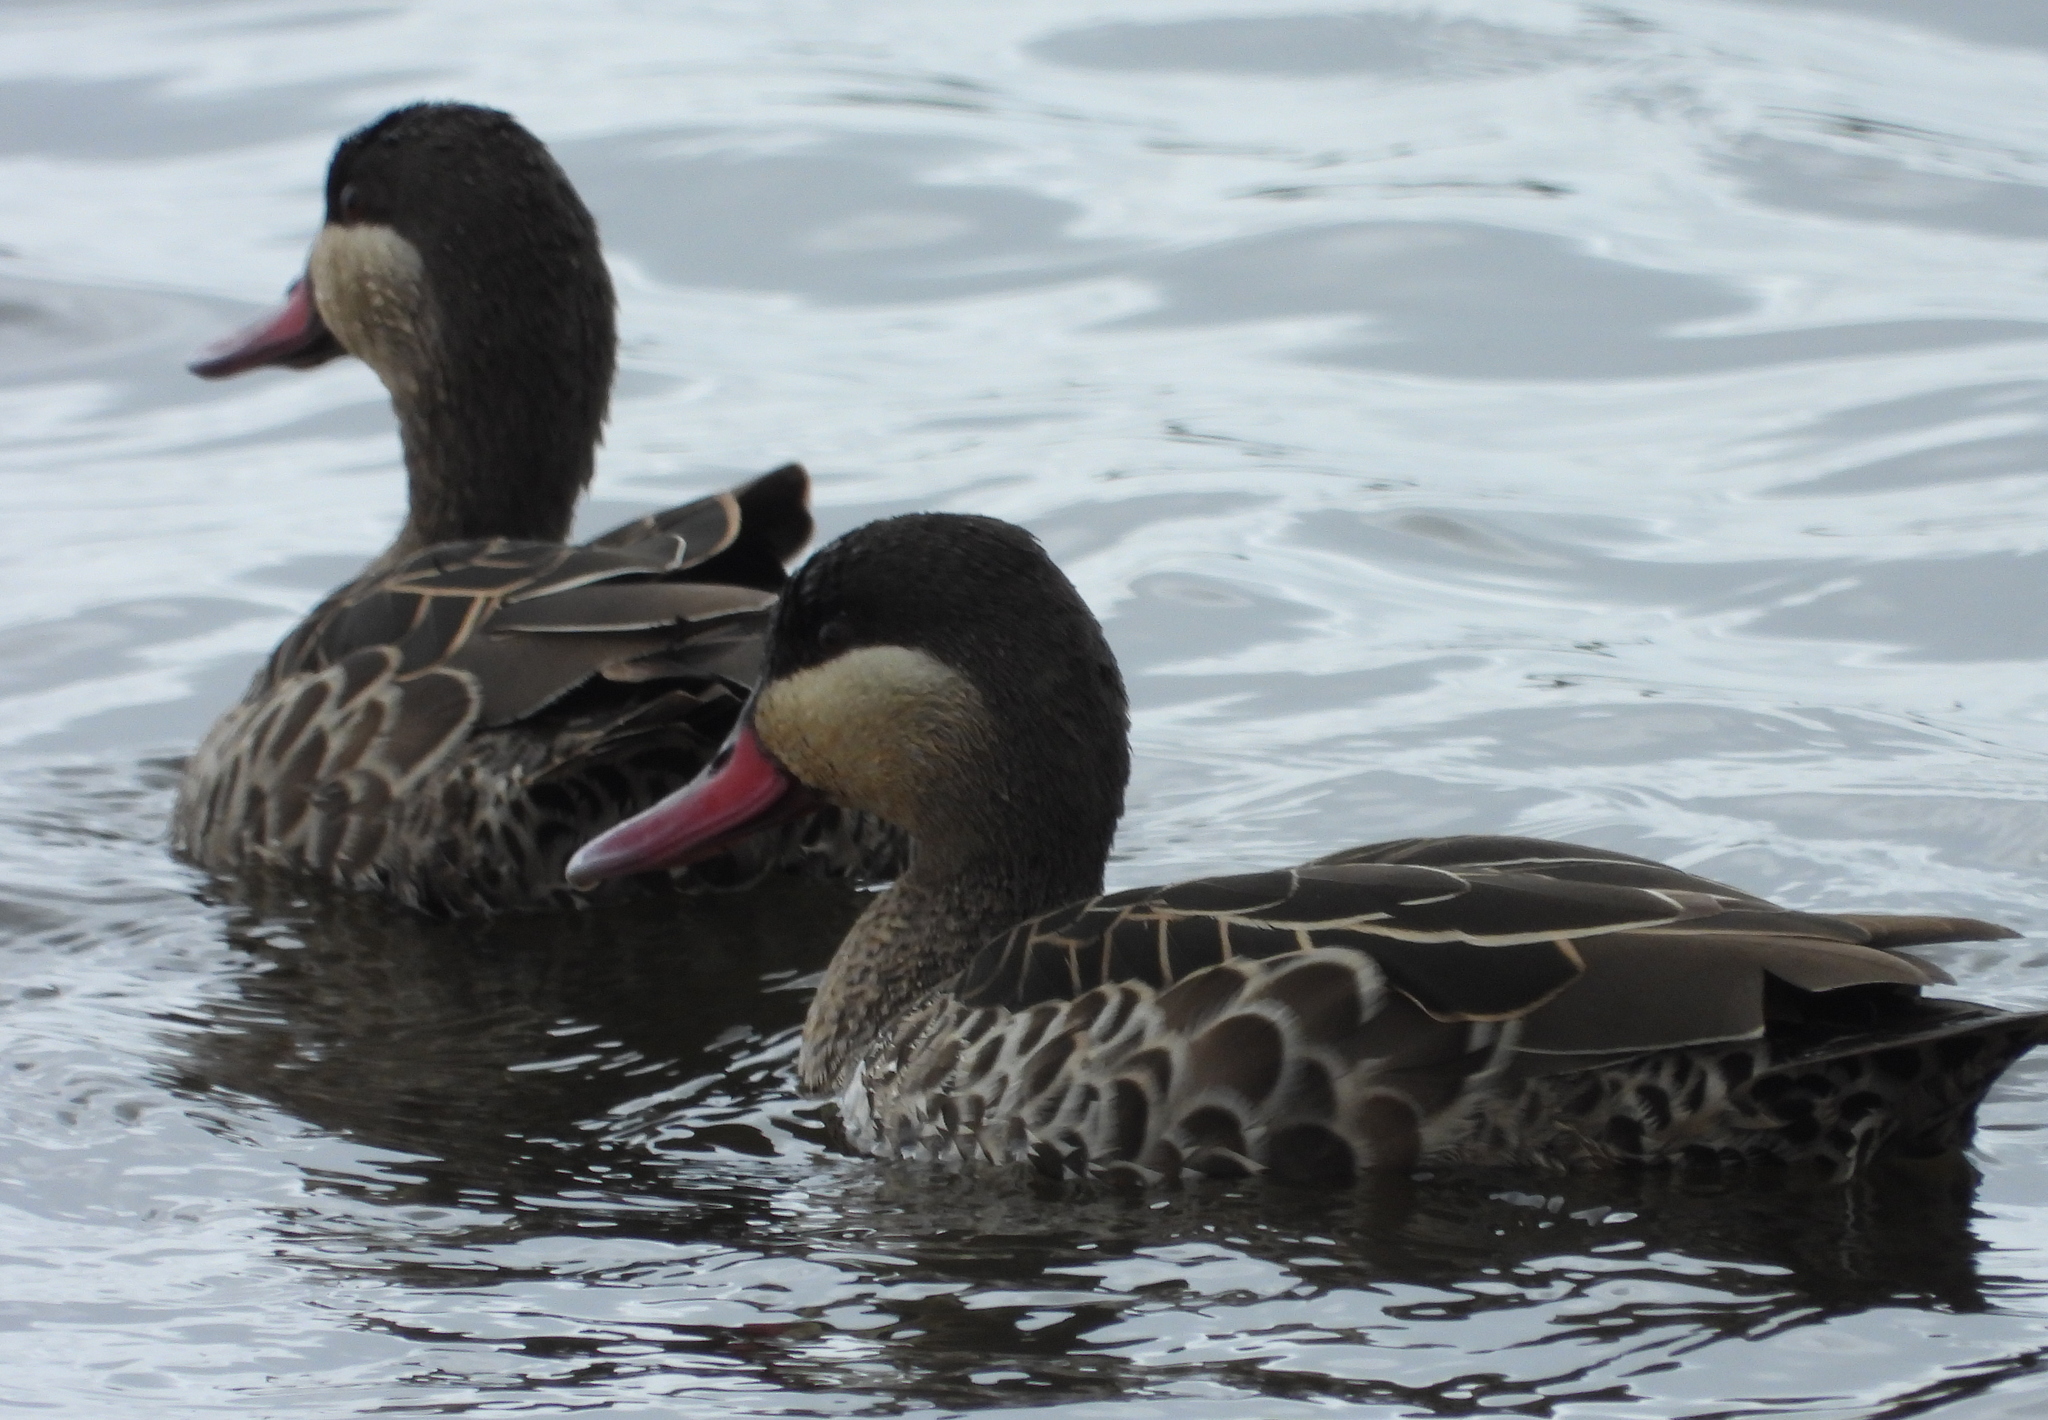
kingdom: Animalia
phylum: Chordata
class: Aves
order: Anseriformes
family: Anatidae
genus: Anas
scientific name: Anas erythrorhyncha
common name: Red-billed teal
